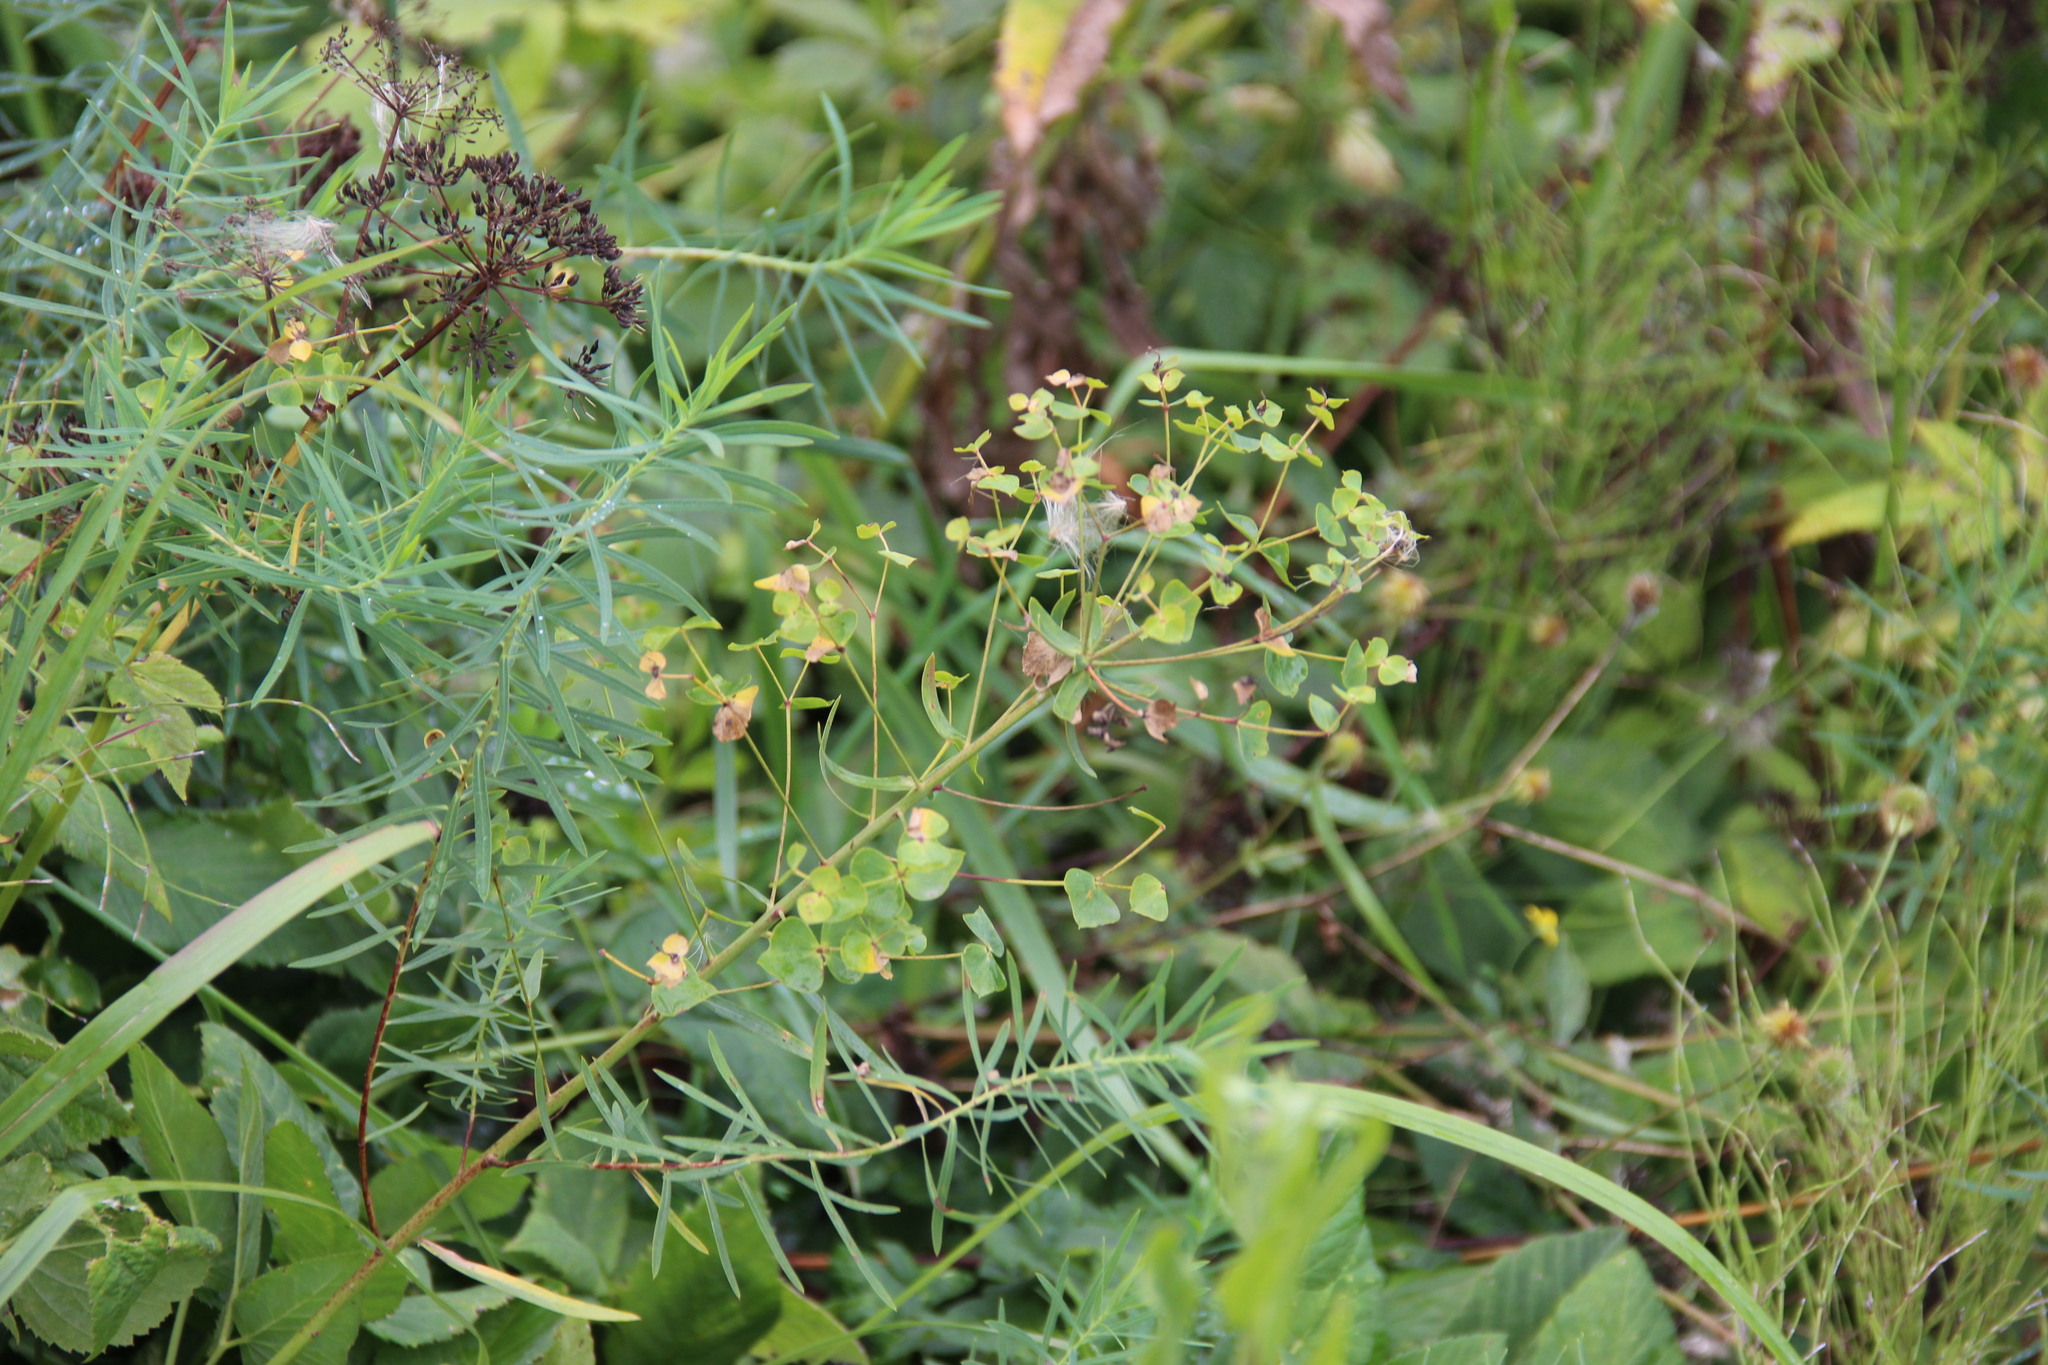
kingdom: Plantae
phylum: Tracheophyta
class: Magnoliopsida
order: Malpighiales
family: Euphorbiaceae
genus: Euphorbia
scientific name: Euphorbia virgata
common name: Leafy spurge
